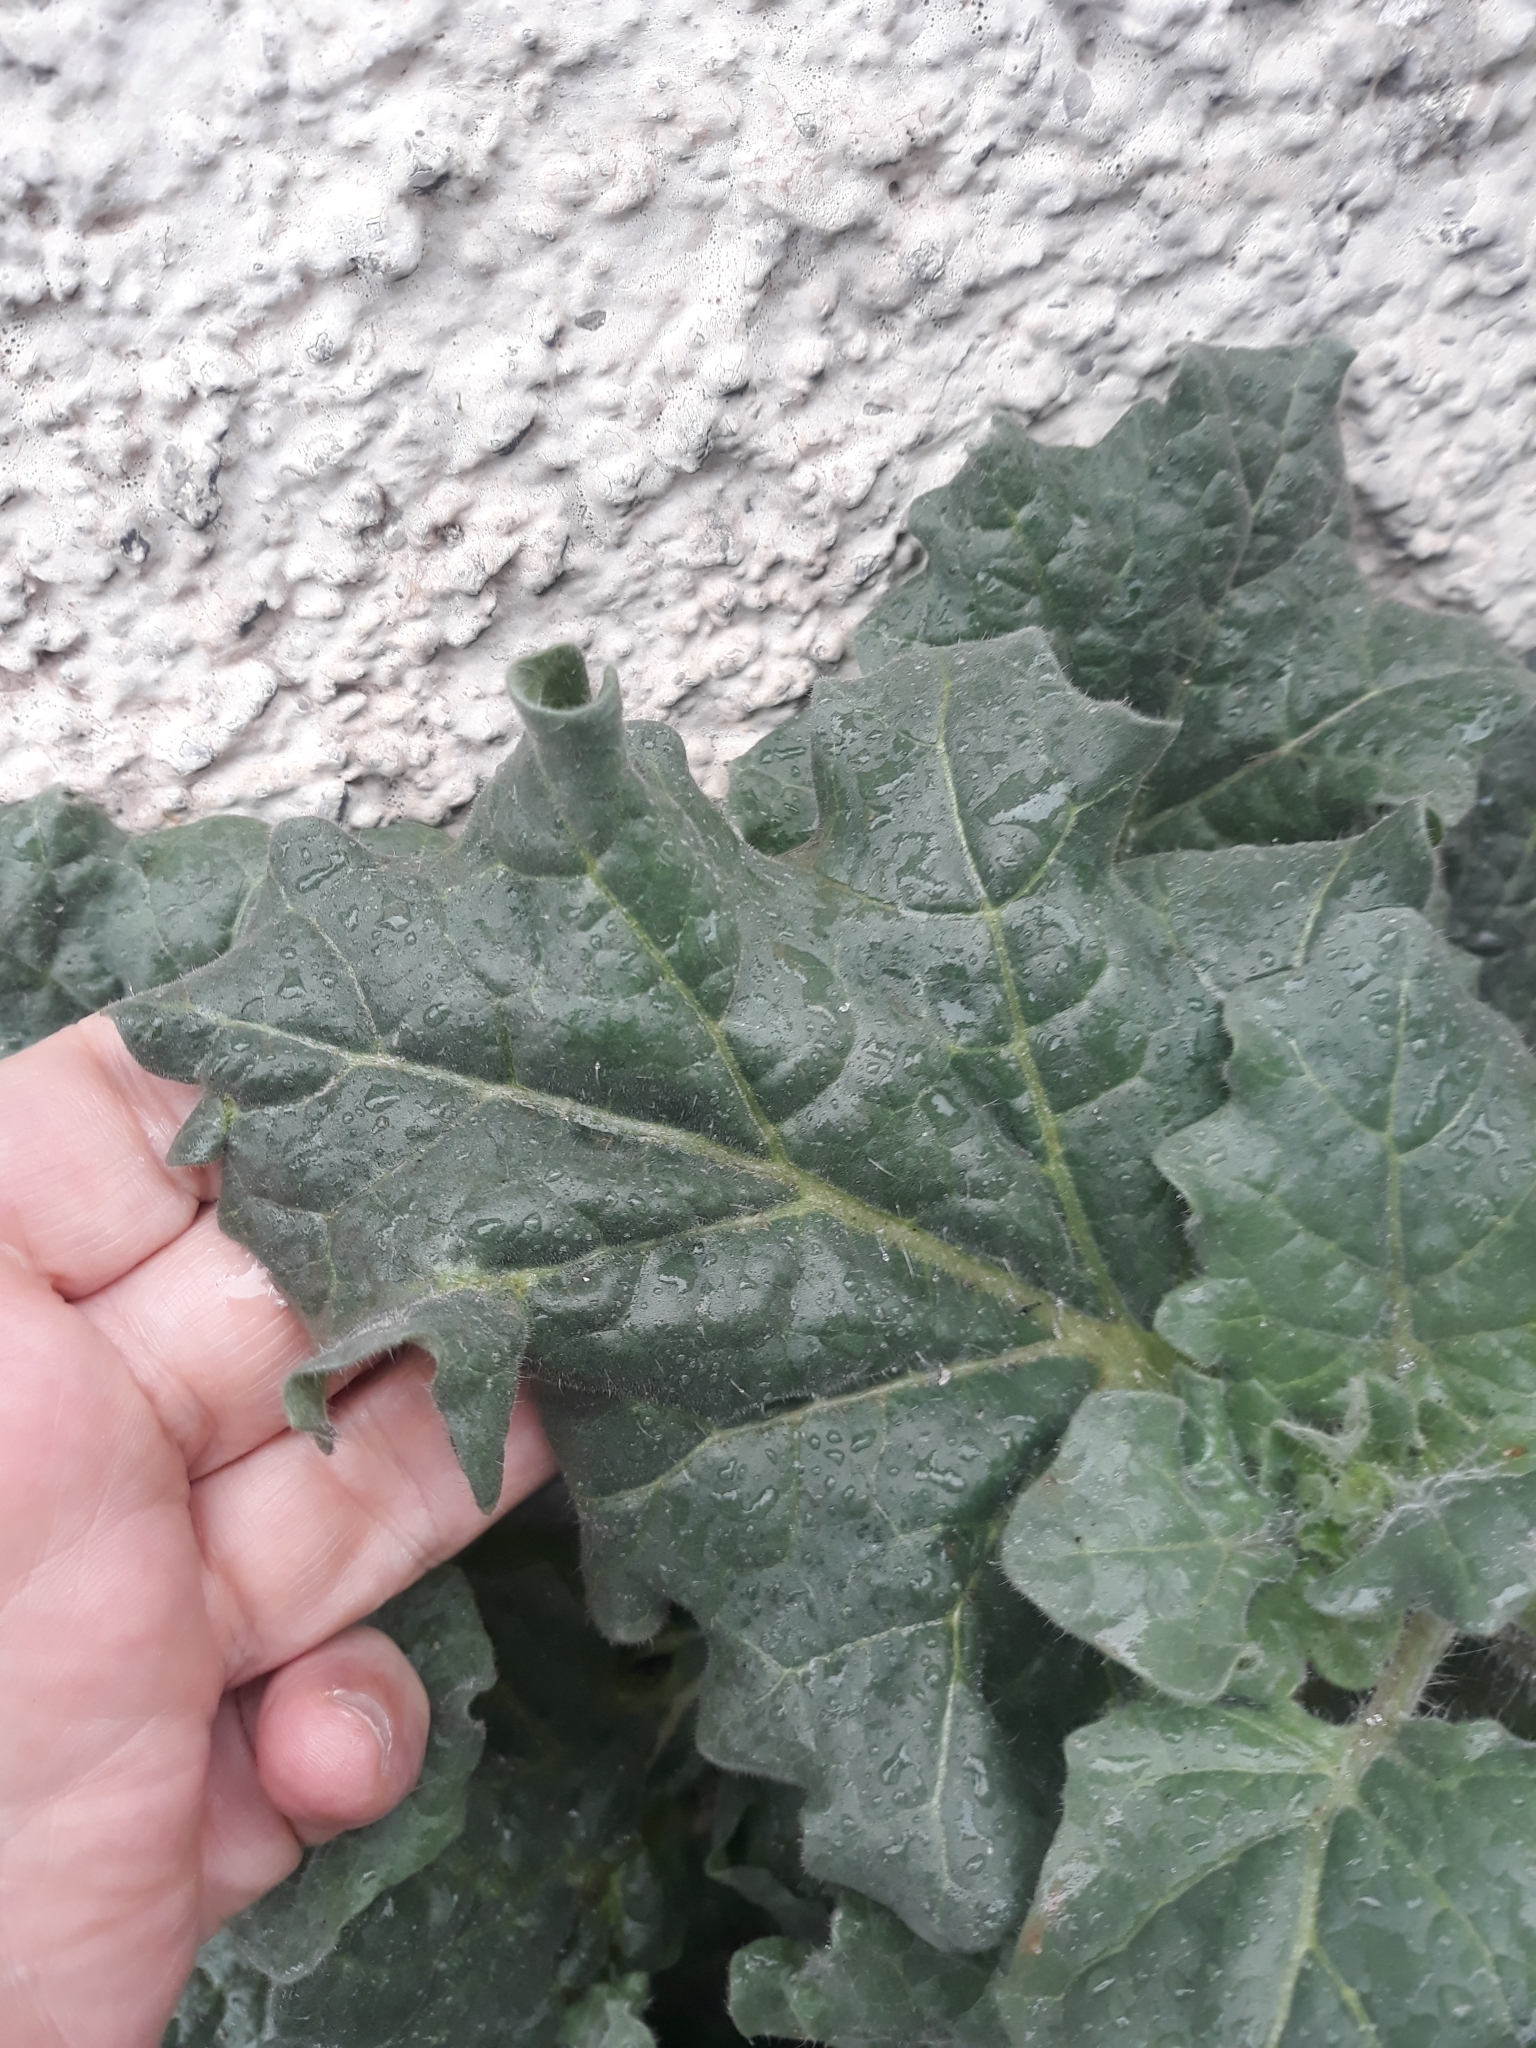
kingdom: Plantae
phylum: Tracheophyta
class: Magnoliopsida
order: Solanales
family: Solanaceae
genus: Hyoscyamus
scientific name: Hyoscyamus albus
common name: White henbane
